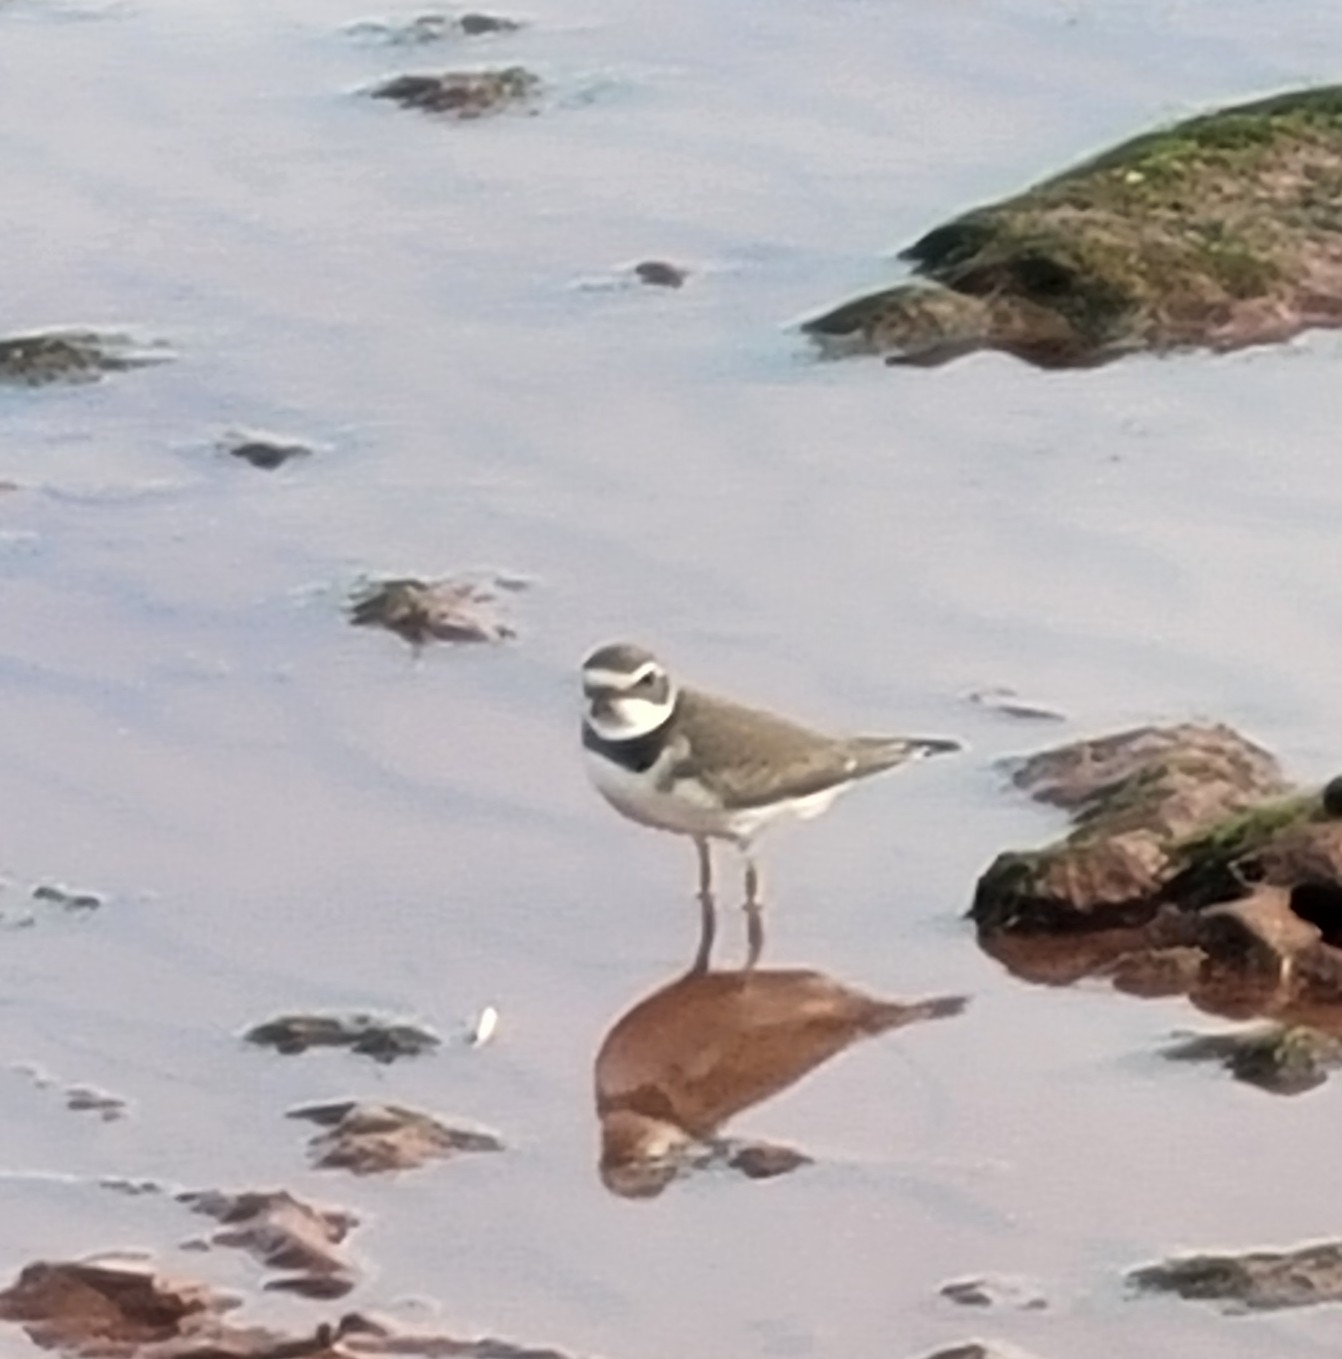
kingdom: Animalia
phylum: Chordata
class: Aves
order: Charadriiformes
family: Charadriidae
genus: Charadrius
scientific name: Charadrius semipalmatus
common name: Semipalmated plover
